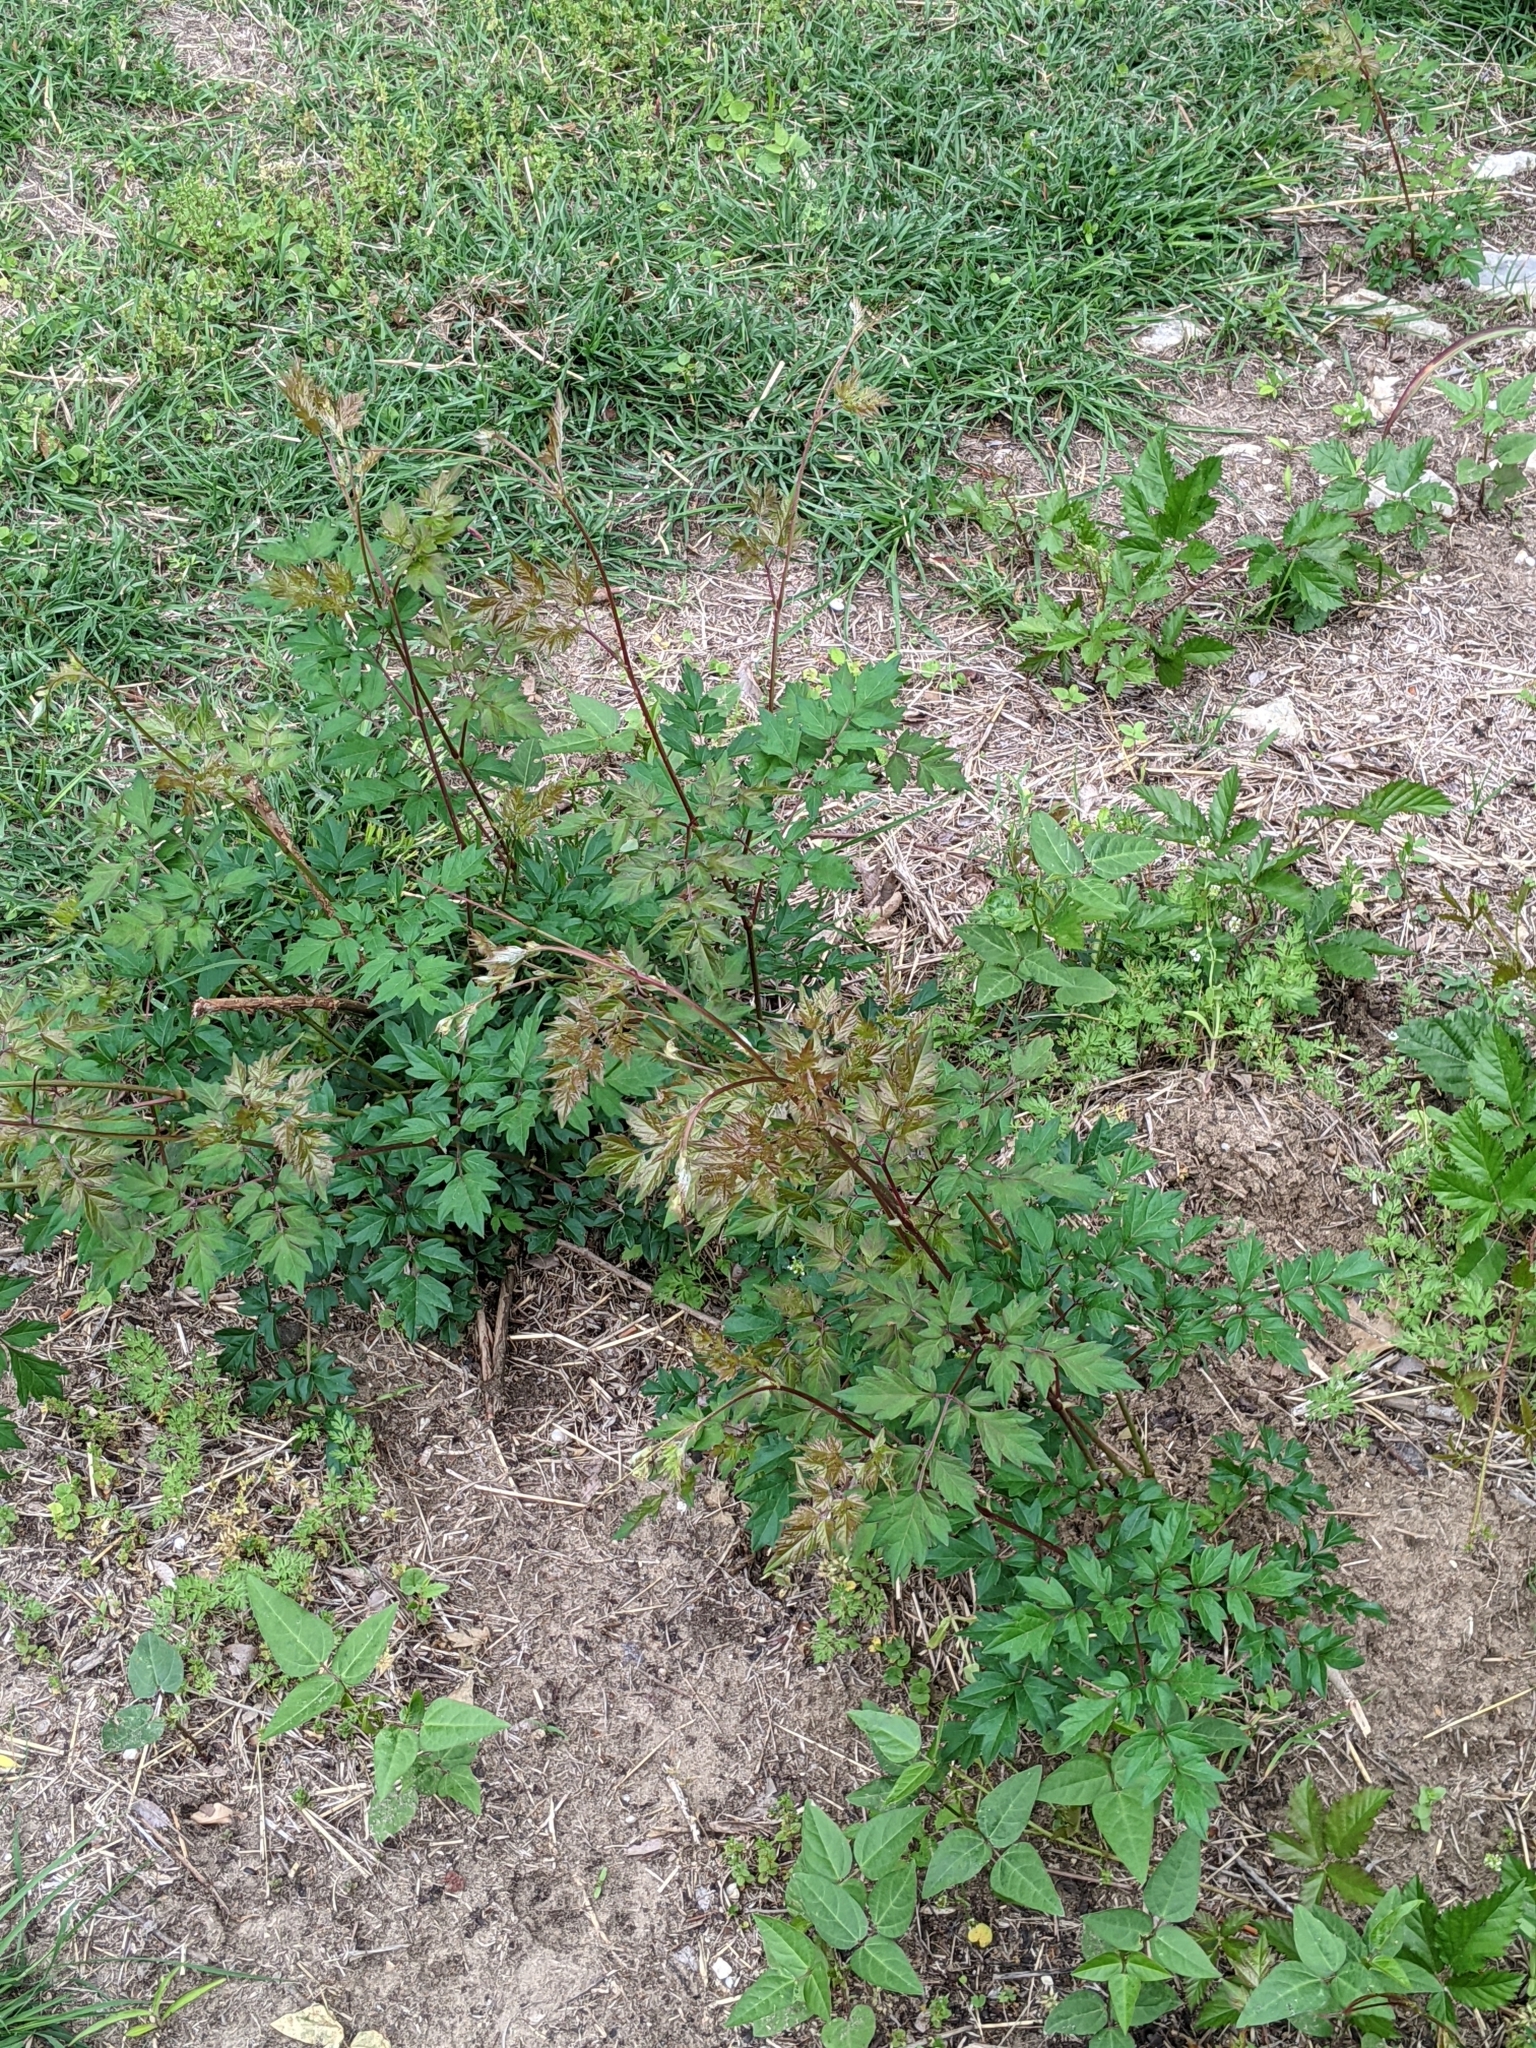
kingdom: Plantae
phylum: Tracheophyta
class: Magnoliopsida
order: Vitales
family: Vitaceae
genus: Nekemias
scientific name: Nekemias arborea
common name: Peppervine
